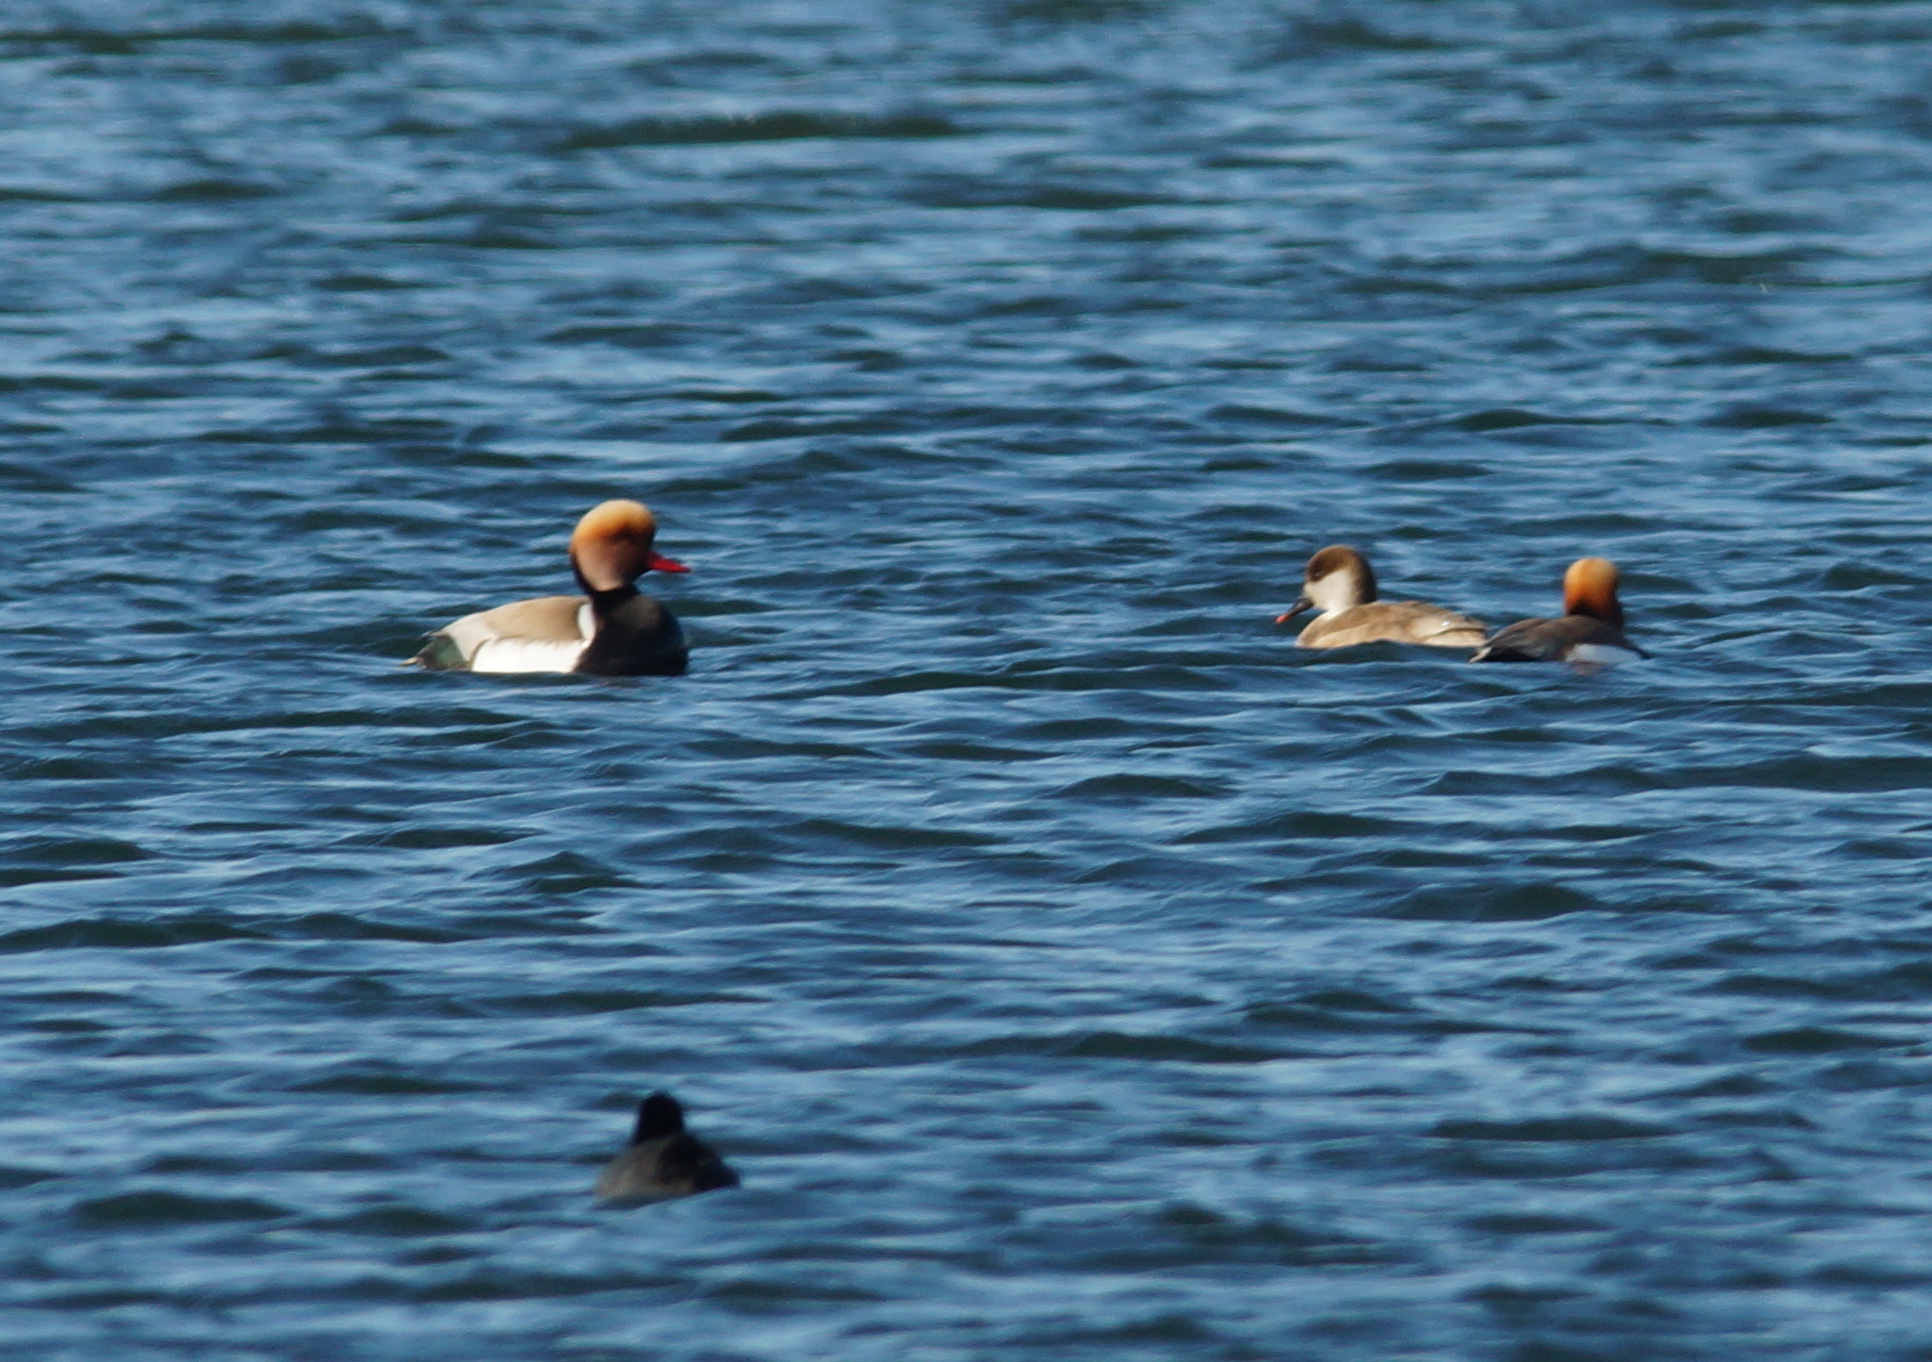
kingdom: Animalia
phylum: Chordata
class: Aves
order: Anseriformes
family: Anatidae
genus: Netta
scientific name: Netta rufina
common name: Red-crested pochard
